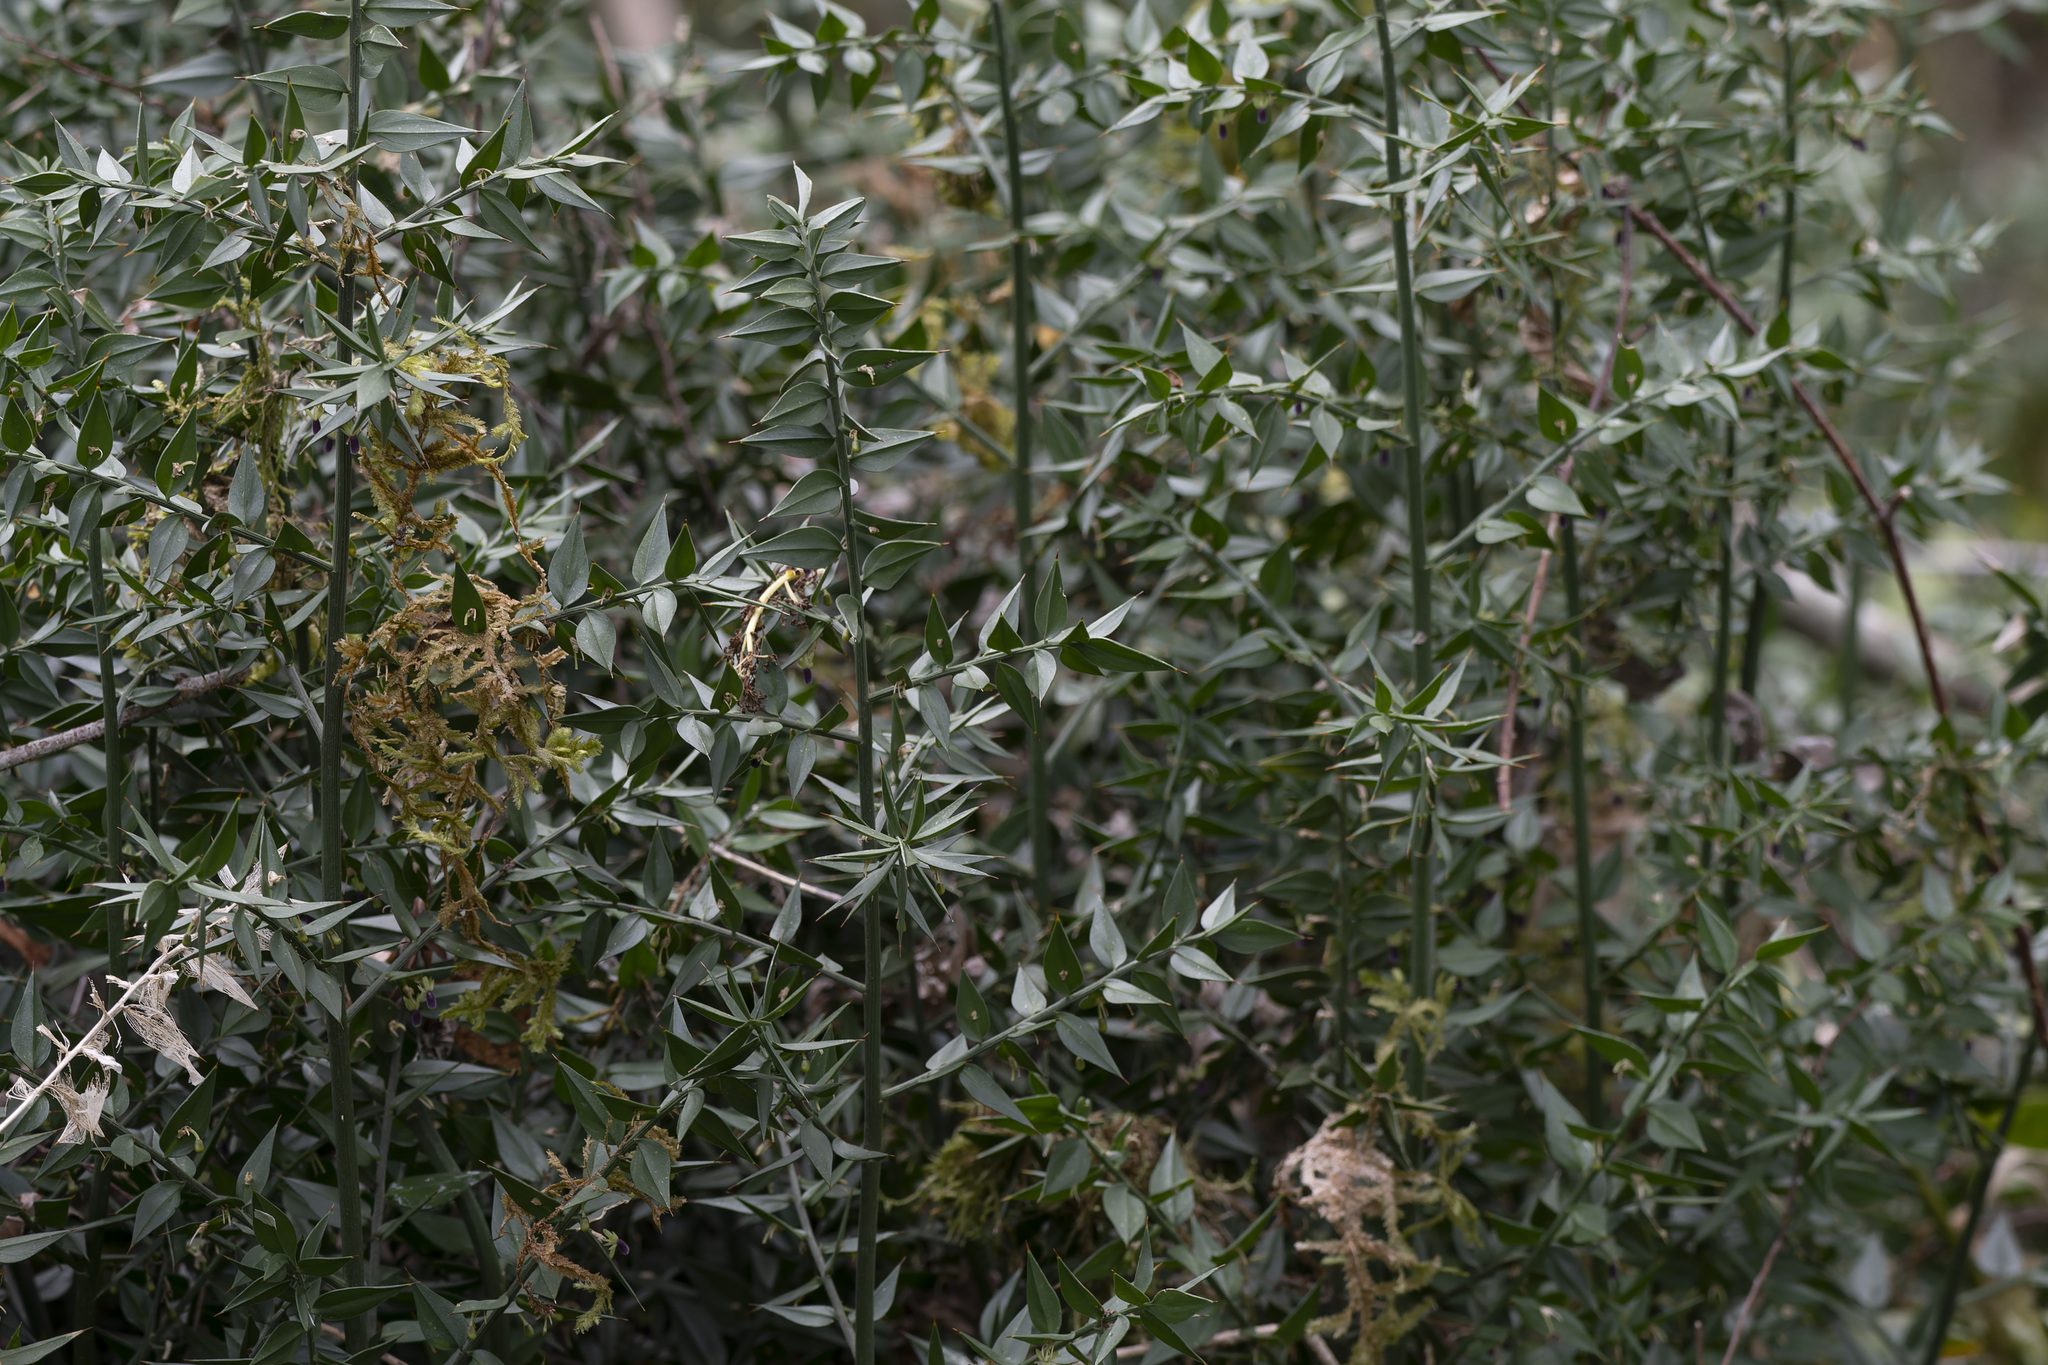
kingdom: Plantae
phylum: Tracheophyta
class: Liliopsida
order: Asparagales
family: Asparagaceae
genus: Ruscus
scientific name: Ruscus aculeatus
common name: Butcher's-broom
